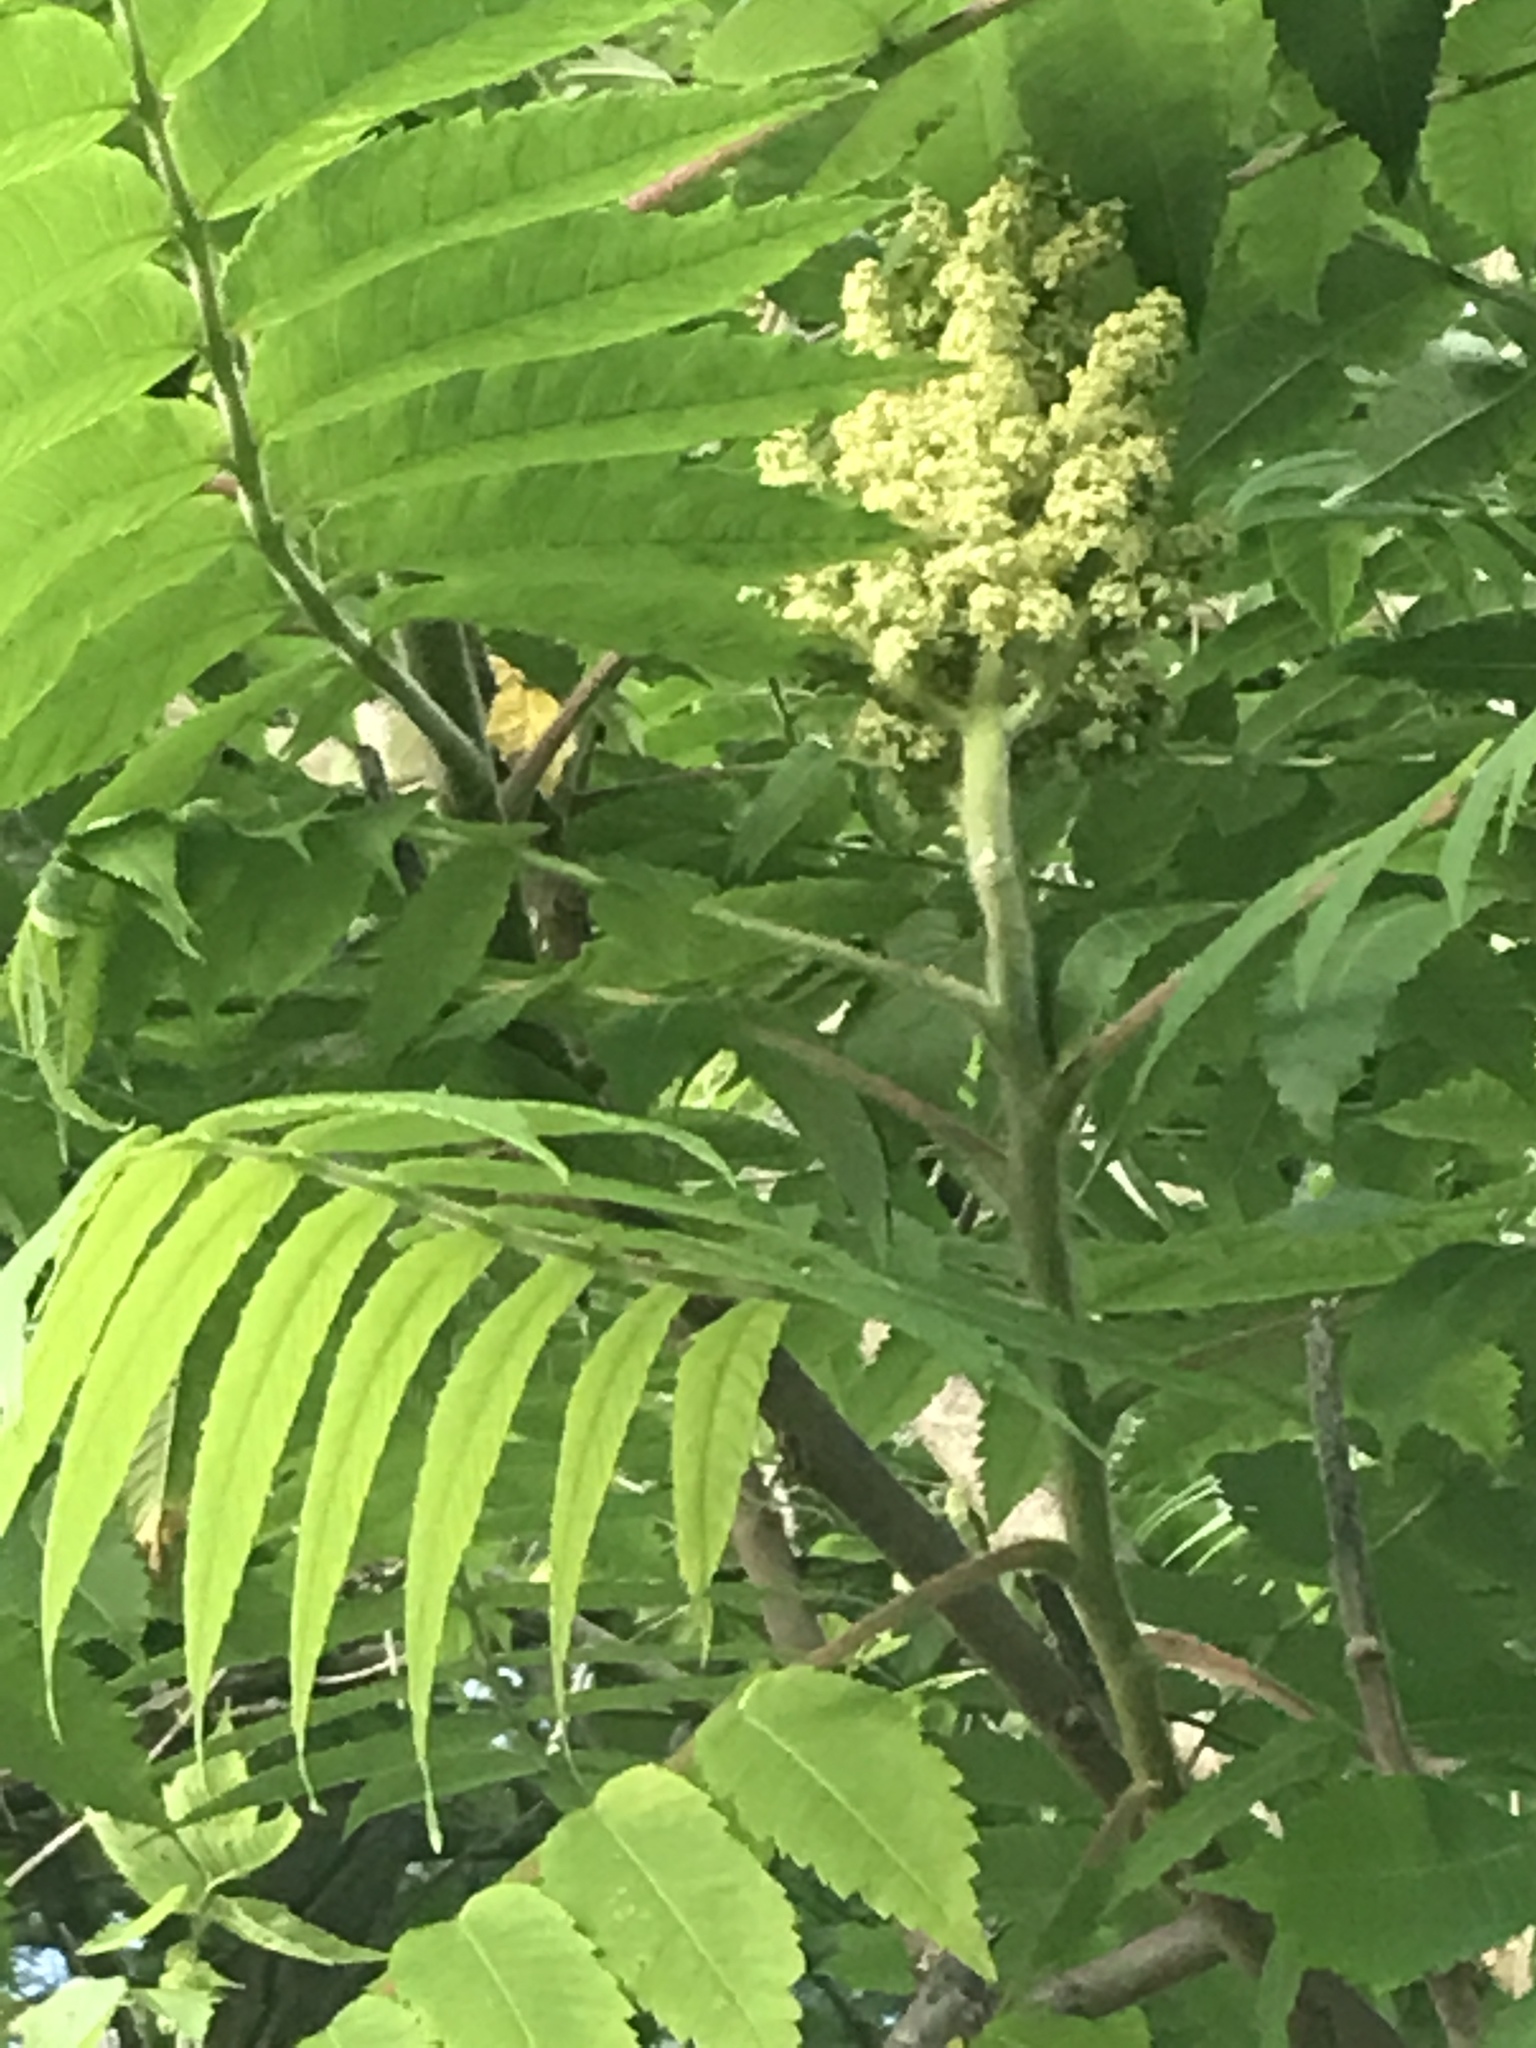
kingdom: Plantae
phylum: Tracheophyta
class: Magnoliopsida
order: Sapindales
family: Anacardiaceae
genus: Rhus
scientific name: Rhus typhina
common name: Staghorn sumac
